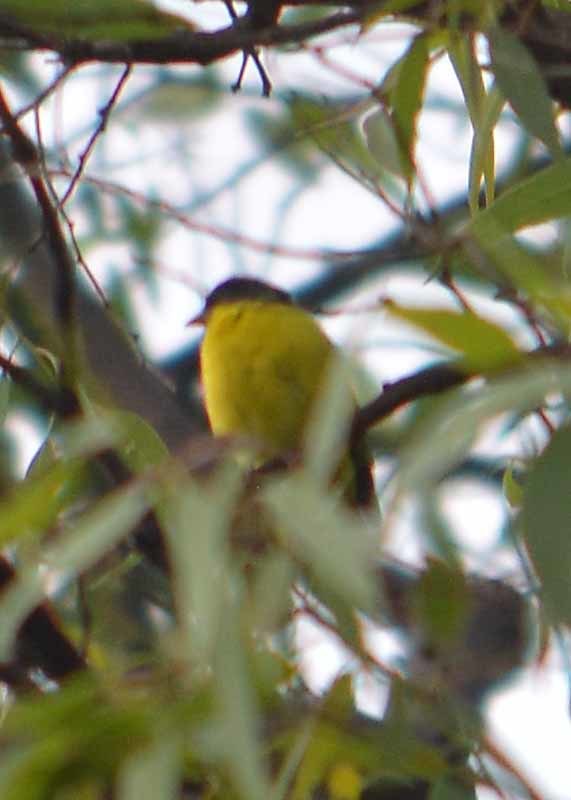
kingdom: Animalia
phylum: Chordata
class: Aves
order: Passeriformes
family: Fringillidae
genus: Spinus
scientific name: Spinus psaltria
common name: Lesser goldfinch
